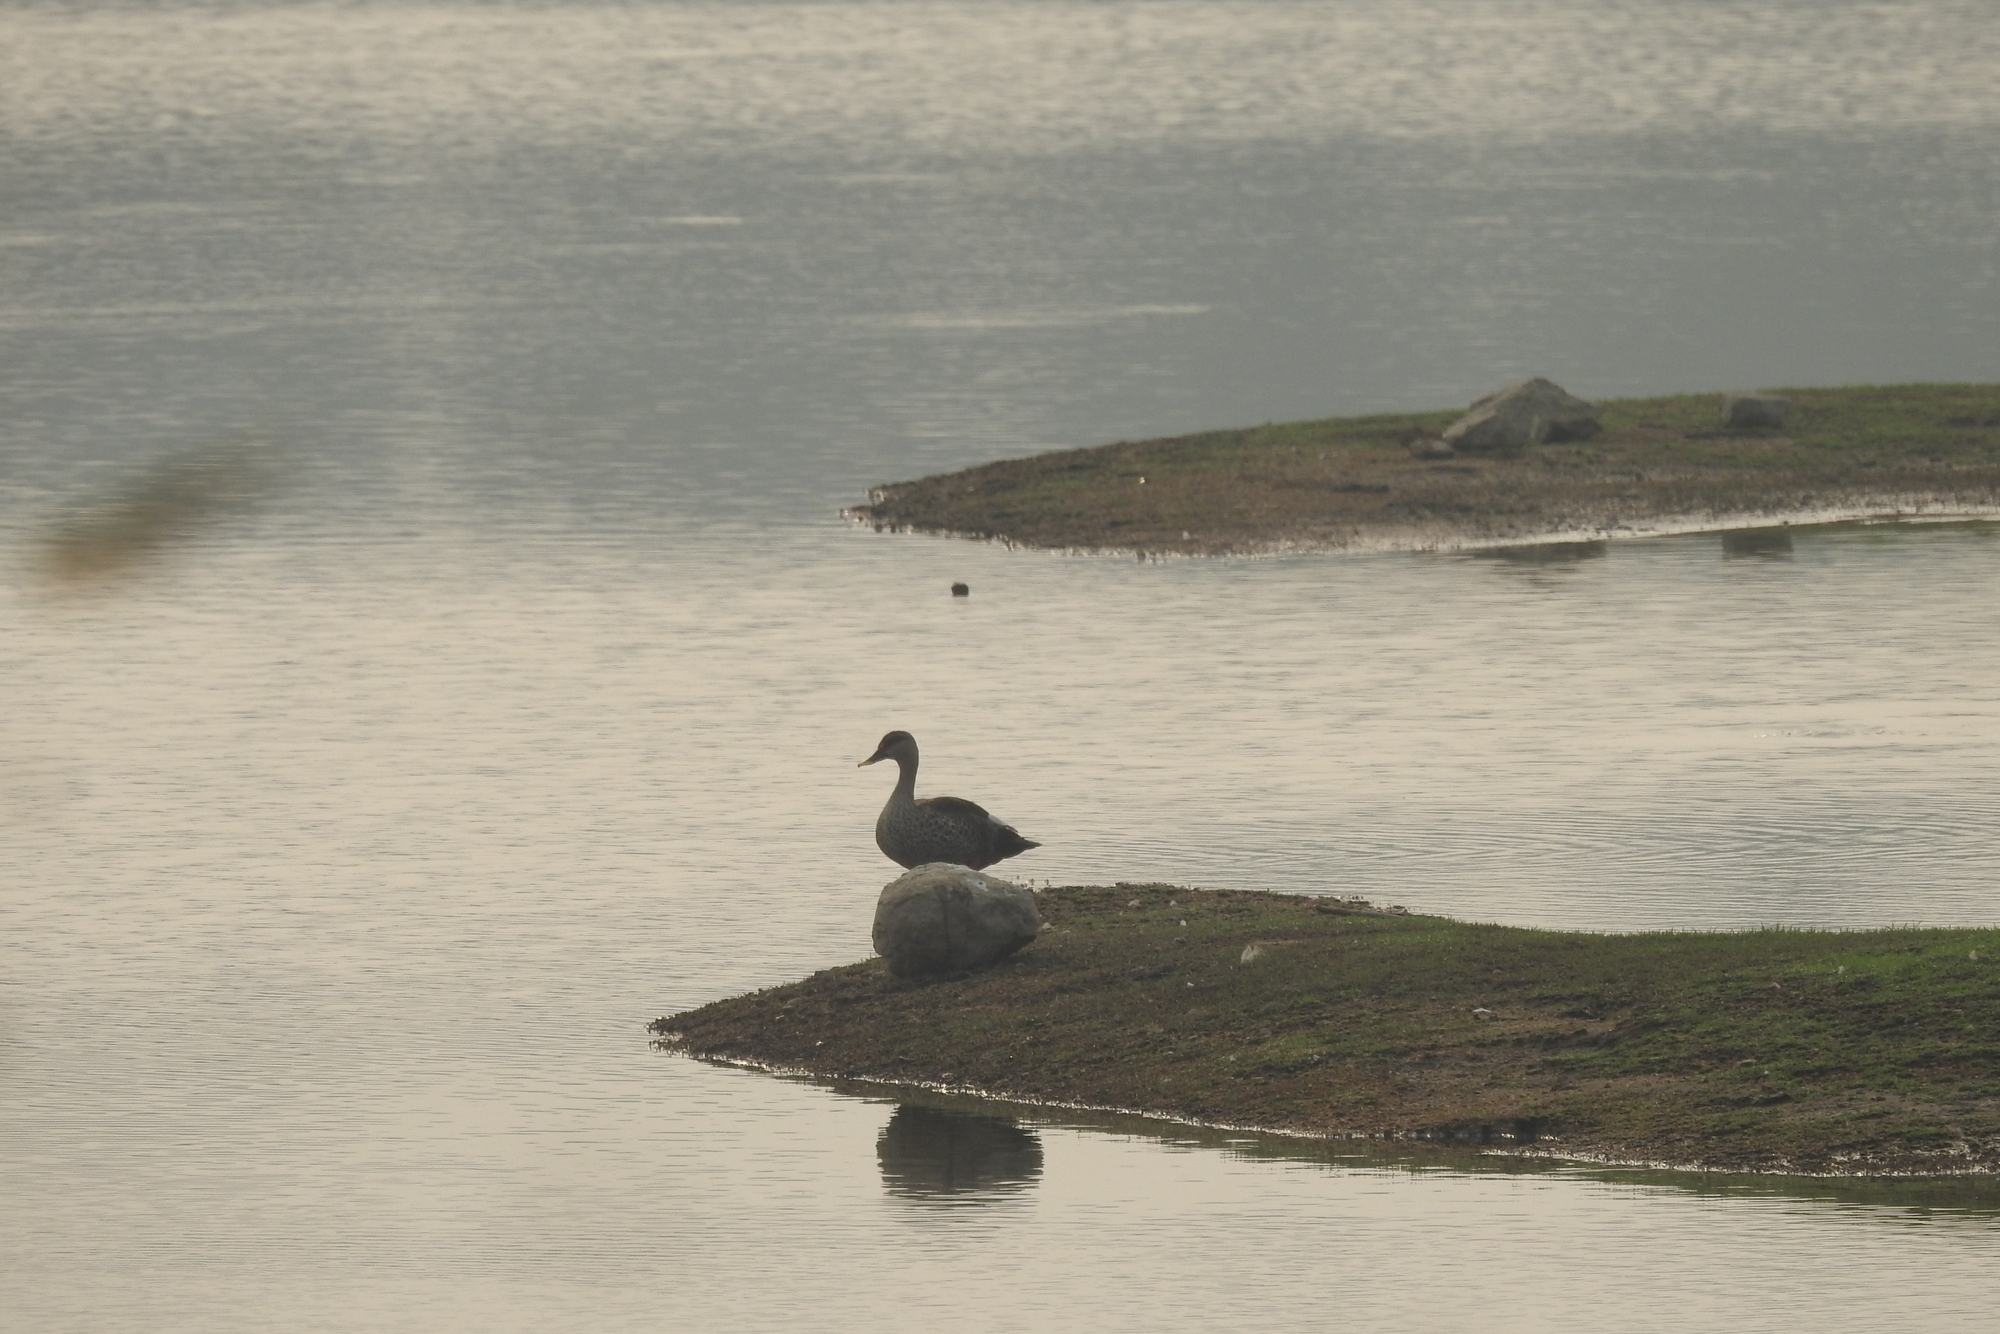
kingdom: Animalia
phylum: Chordata
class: Aves
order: Anseriformes
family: Anatidae
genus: Anas
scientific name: Anas poecilorhyncha
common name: Indian spot-billed duck
